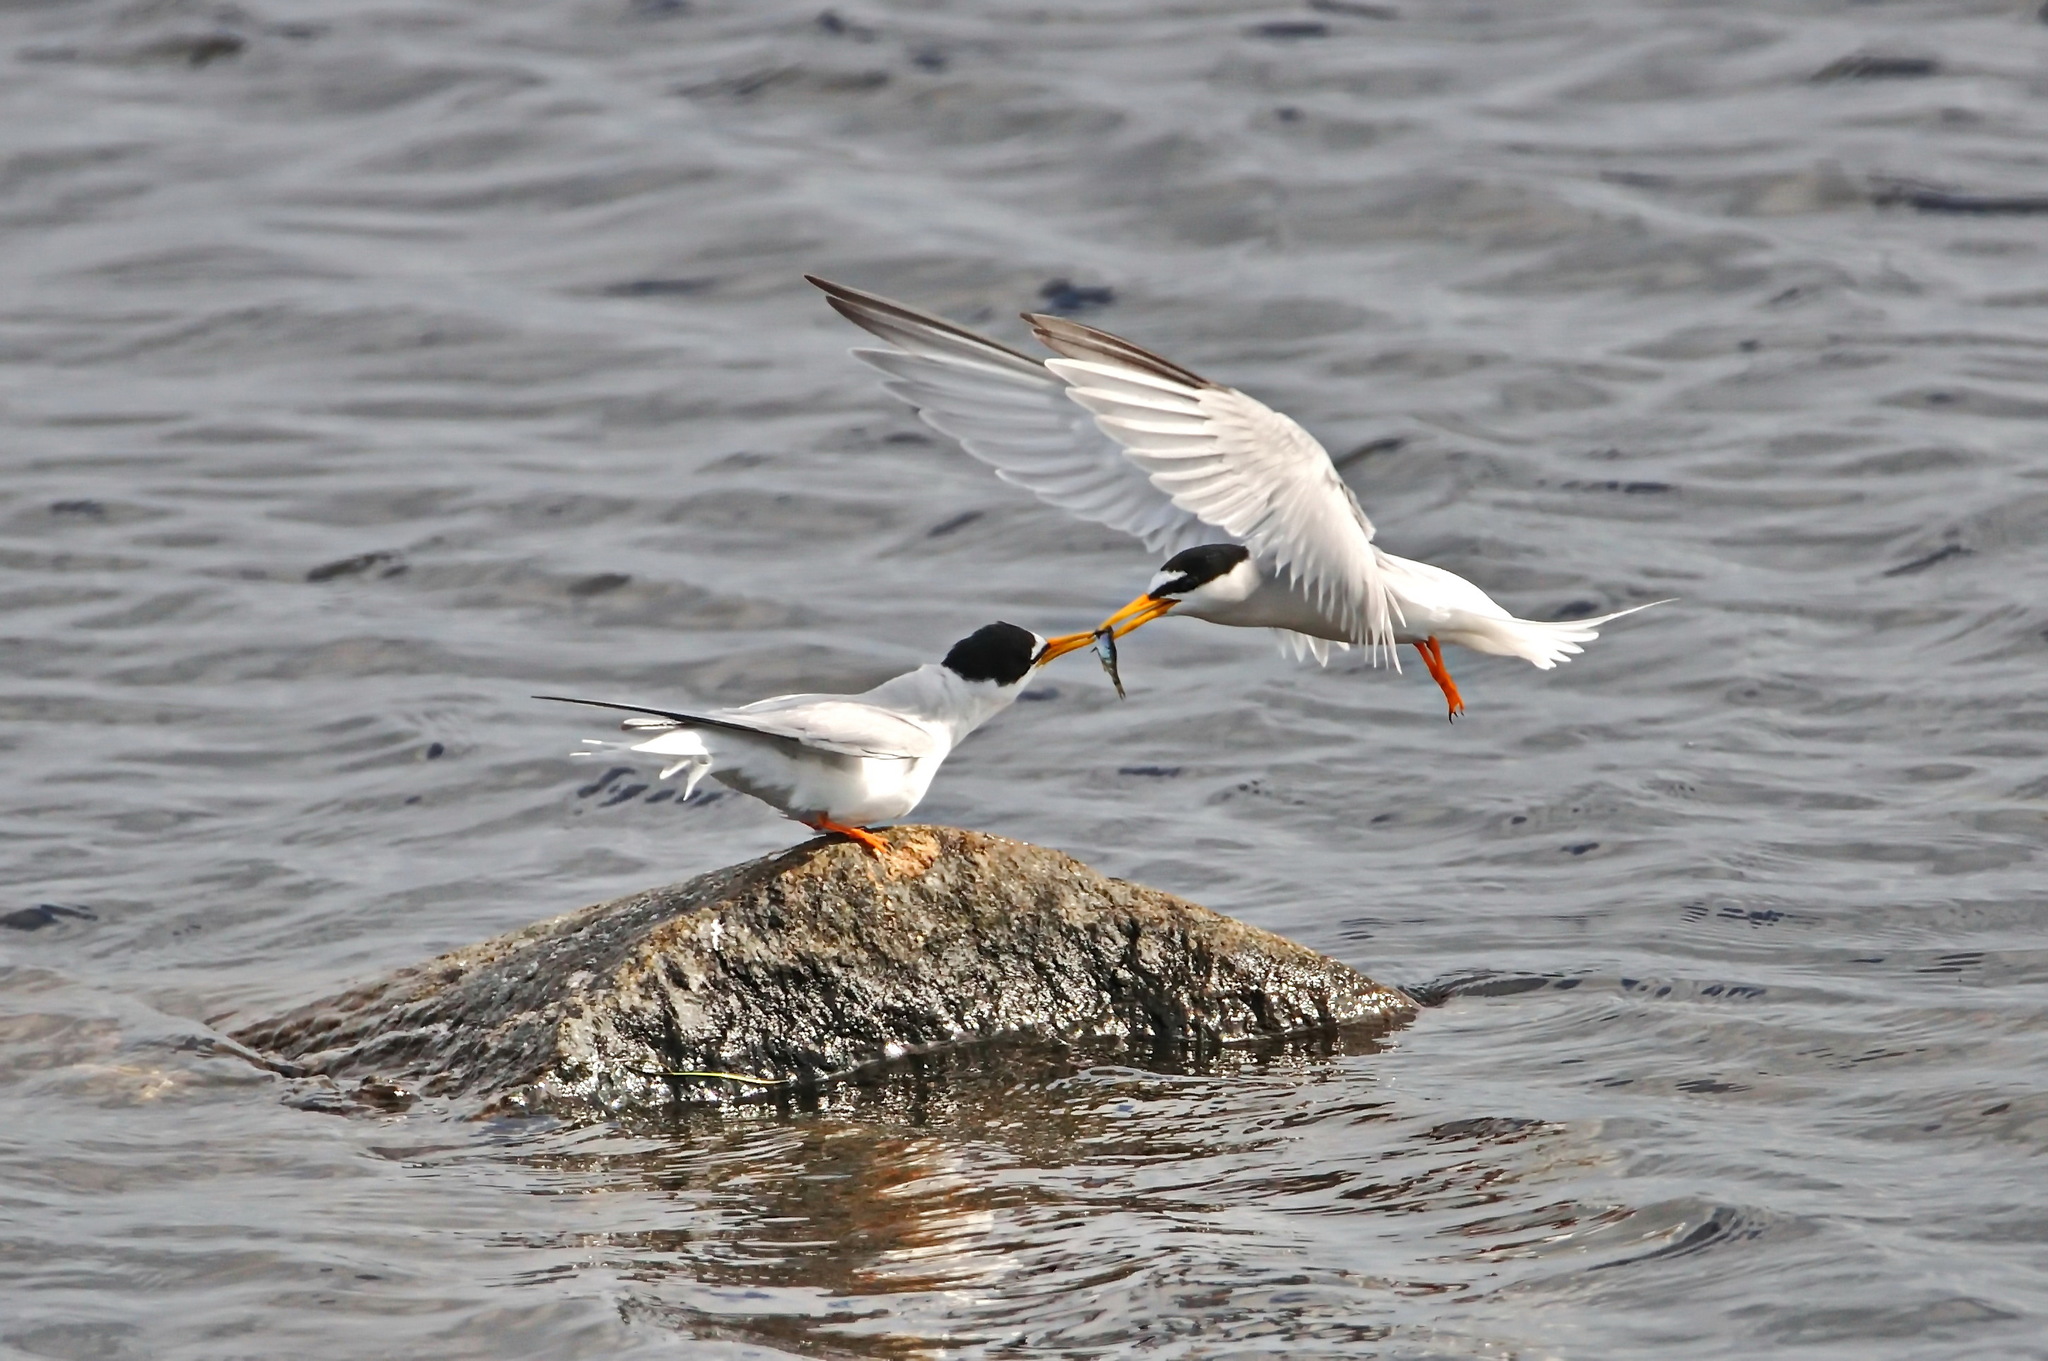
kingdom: Animalia
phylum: Chordata
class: Aves
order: Charadriiformes
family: Laridae
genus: Sternula
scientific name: Sternula albifrons
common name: Little tern
